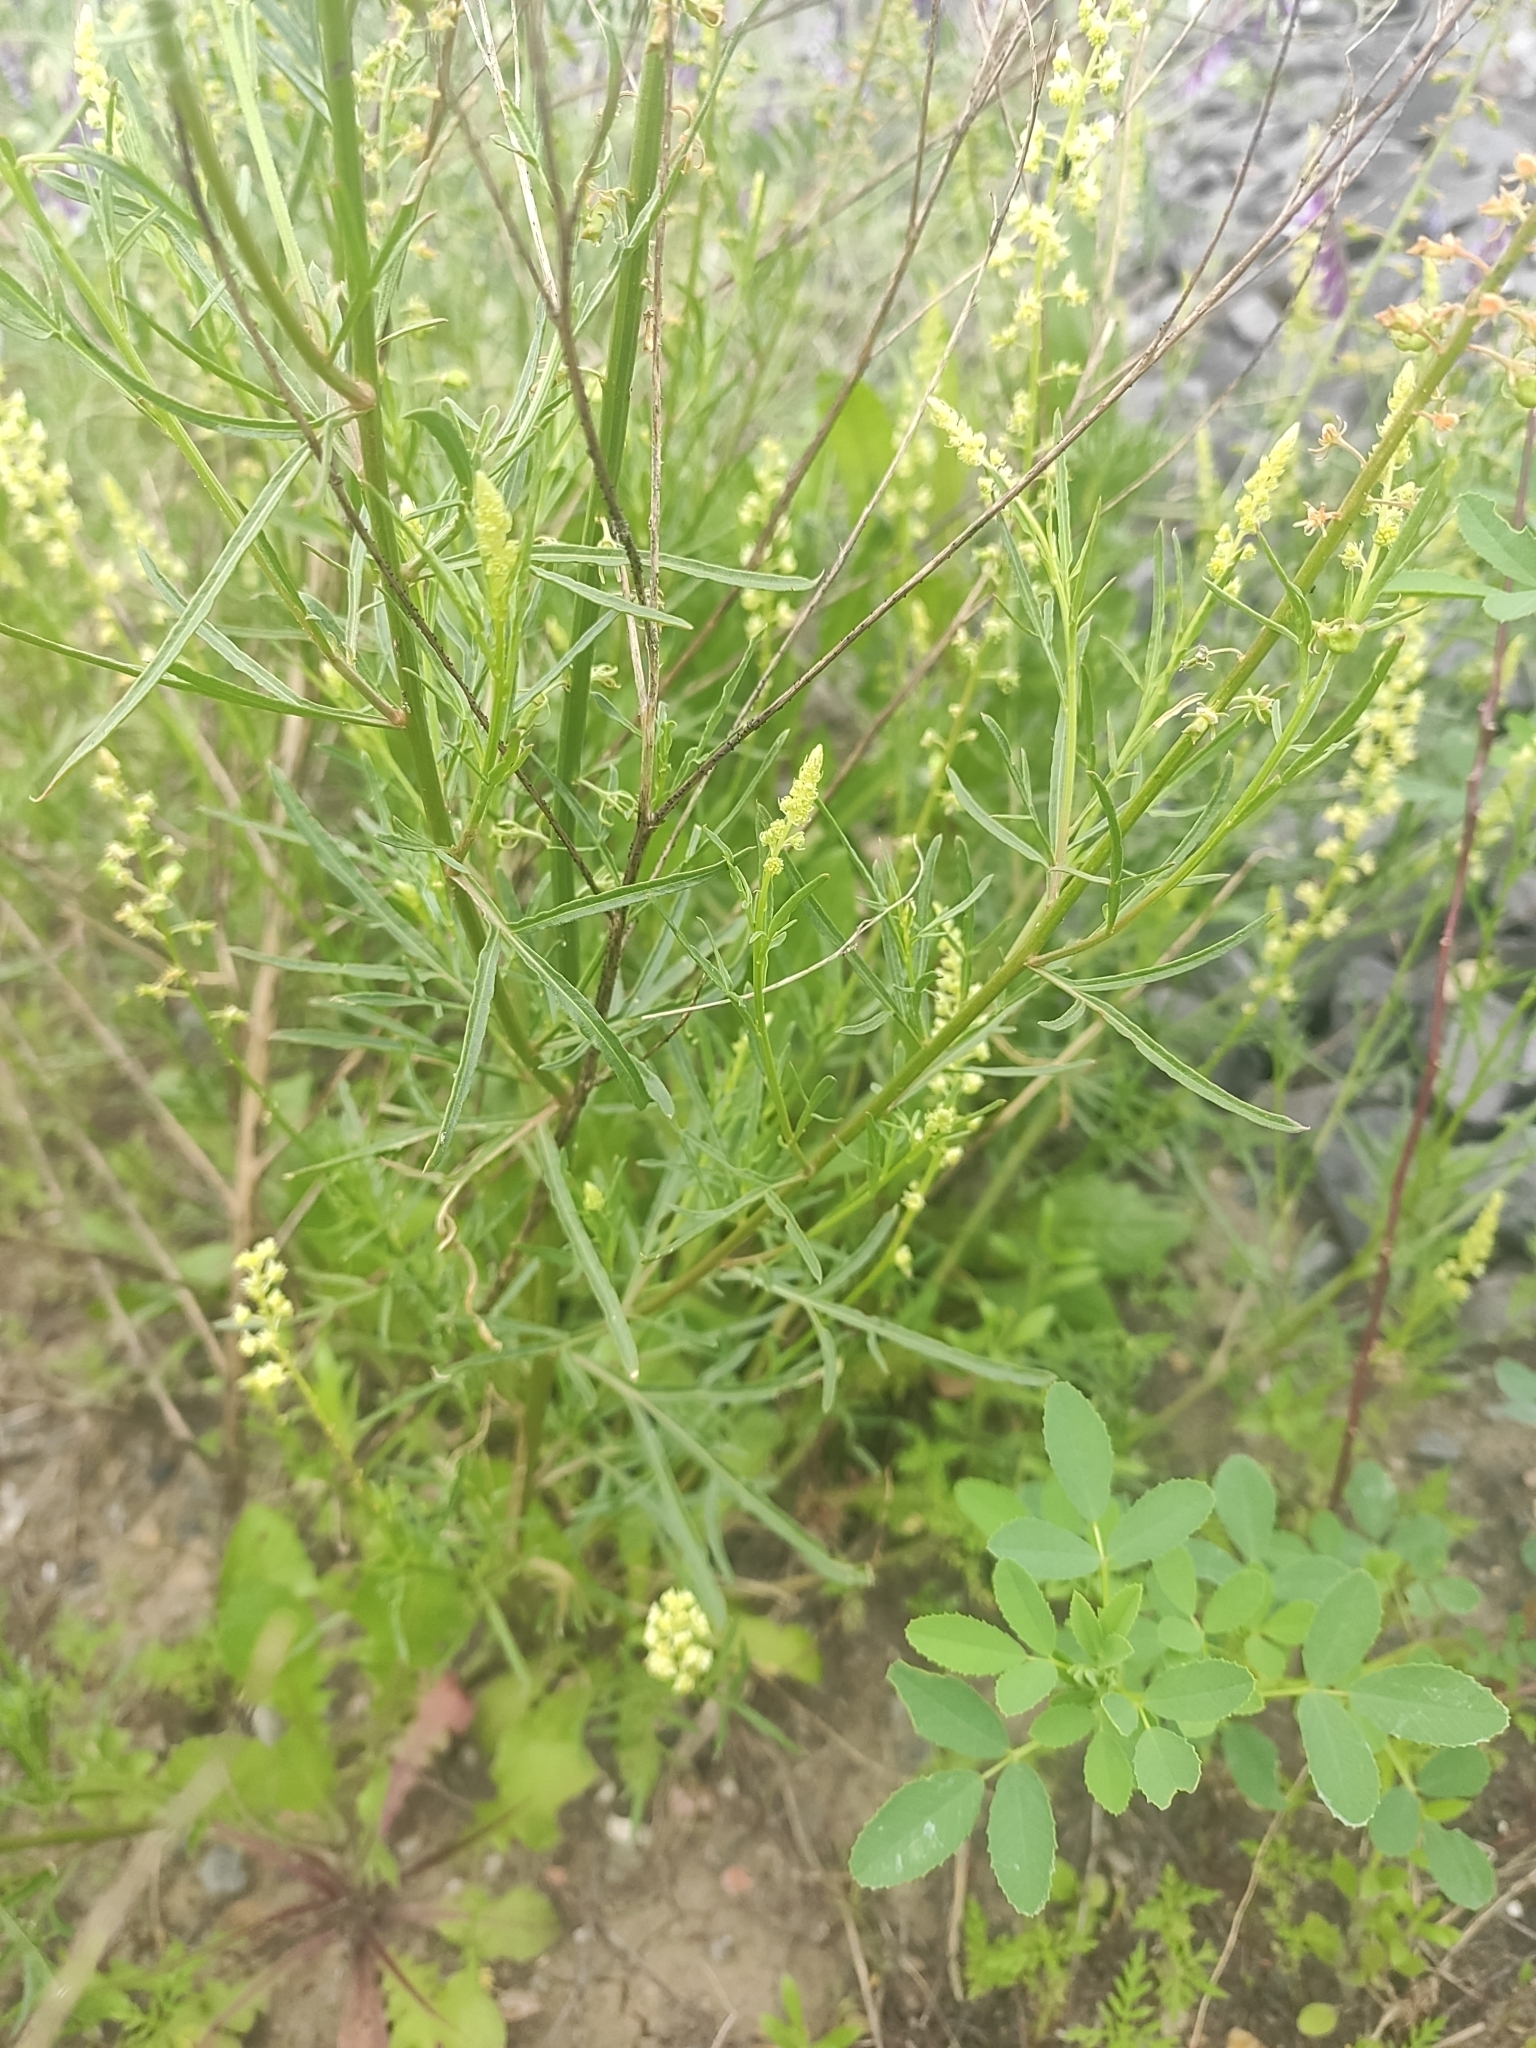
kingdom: Plantae
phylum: Tracheophyta
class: Magnoliopsida
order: Brassicales
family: Resedaceae
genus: Reseda
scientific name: Reseda lutea
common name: Wild mignonette
